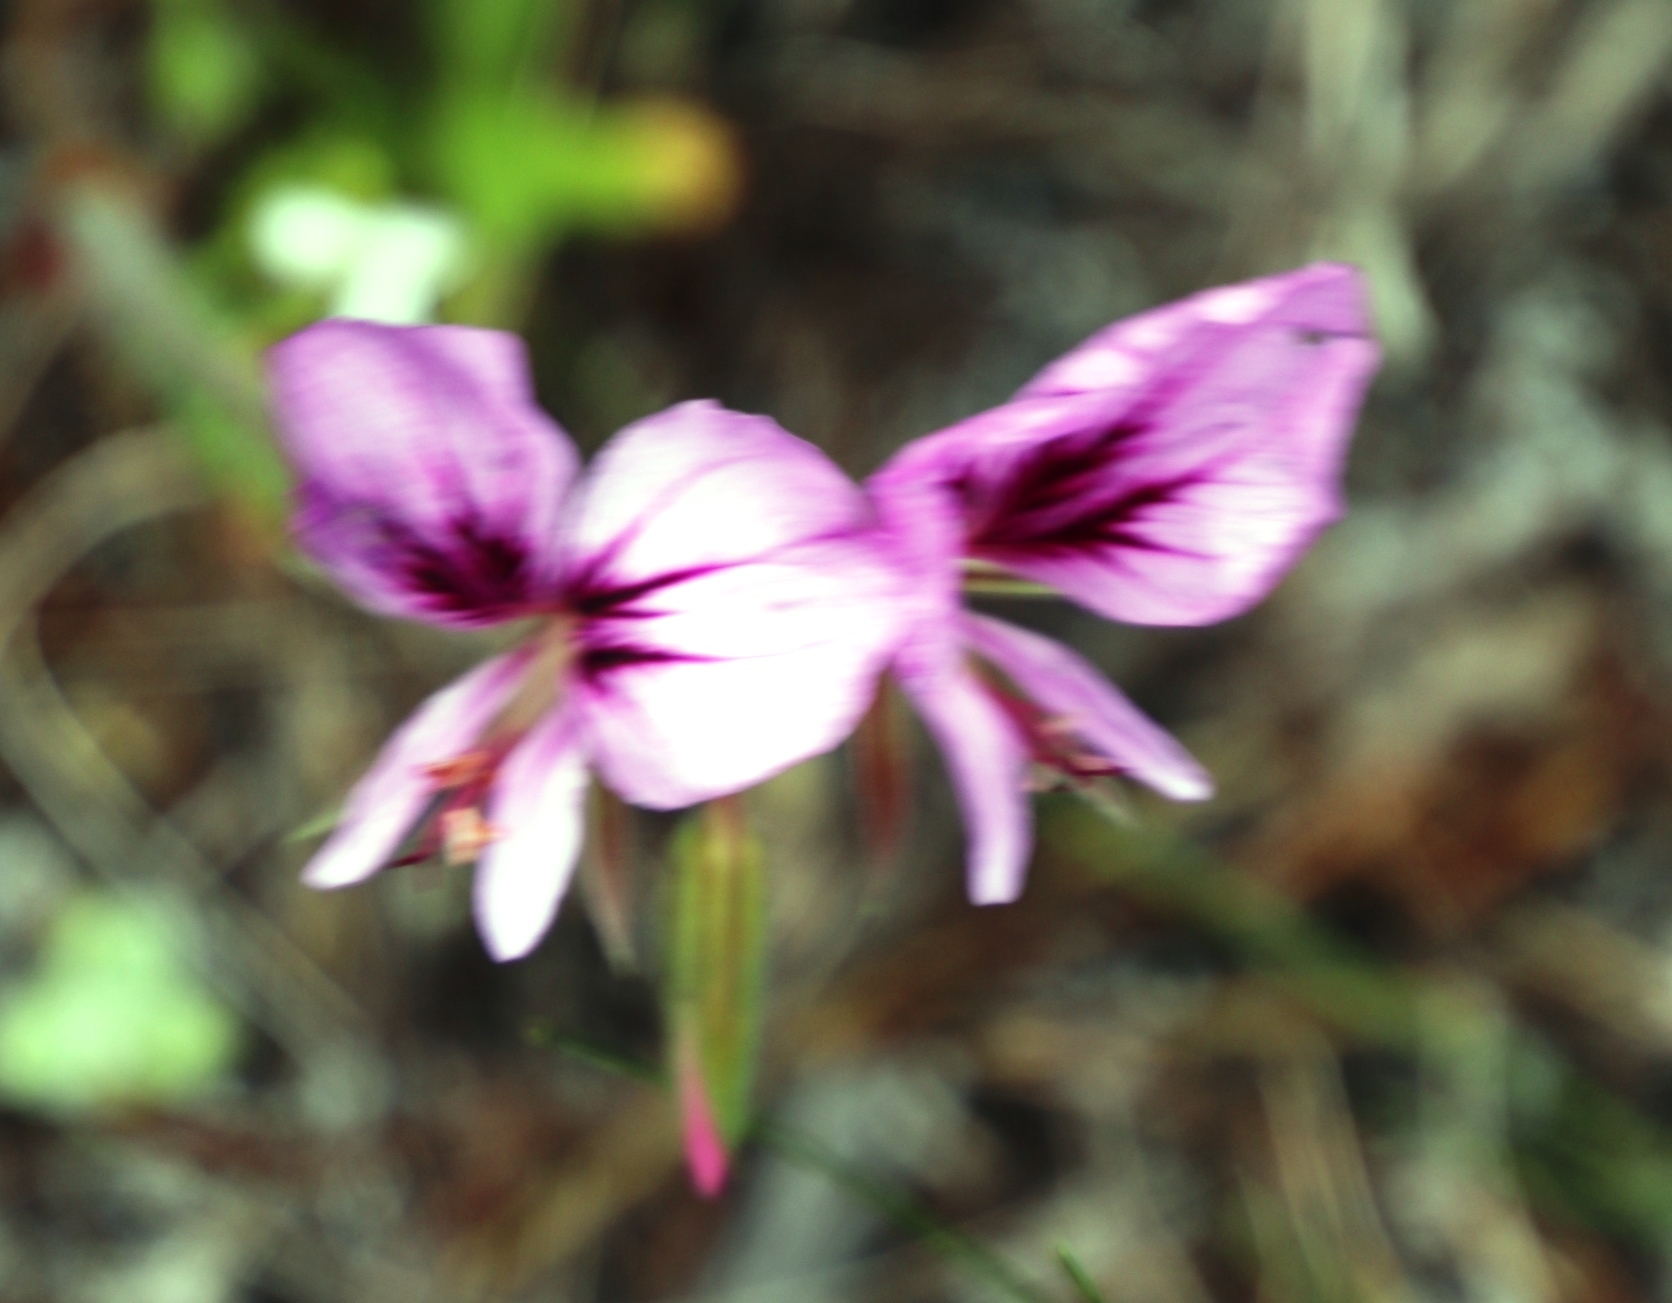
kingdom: Plantae
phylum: Tracheophyta
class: Magnoliopsida
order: Geraniales
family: Geraniaceae
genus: Pelargonium
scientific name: Pelargonium myrrhifolium
